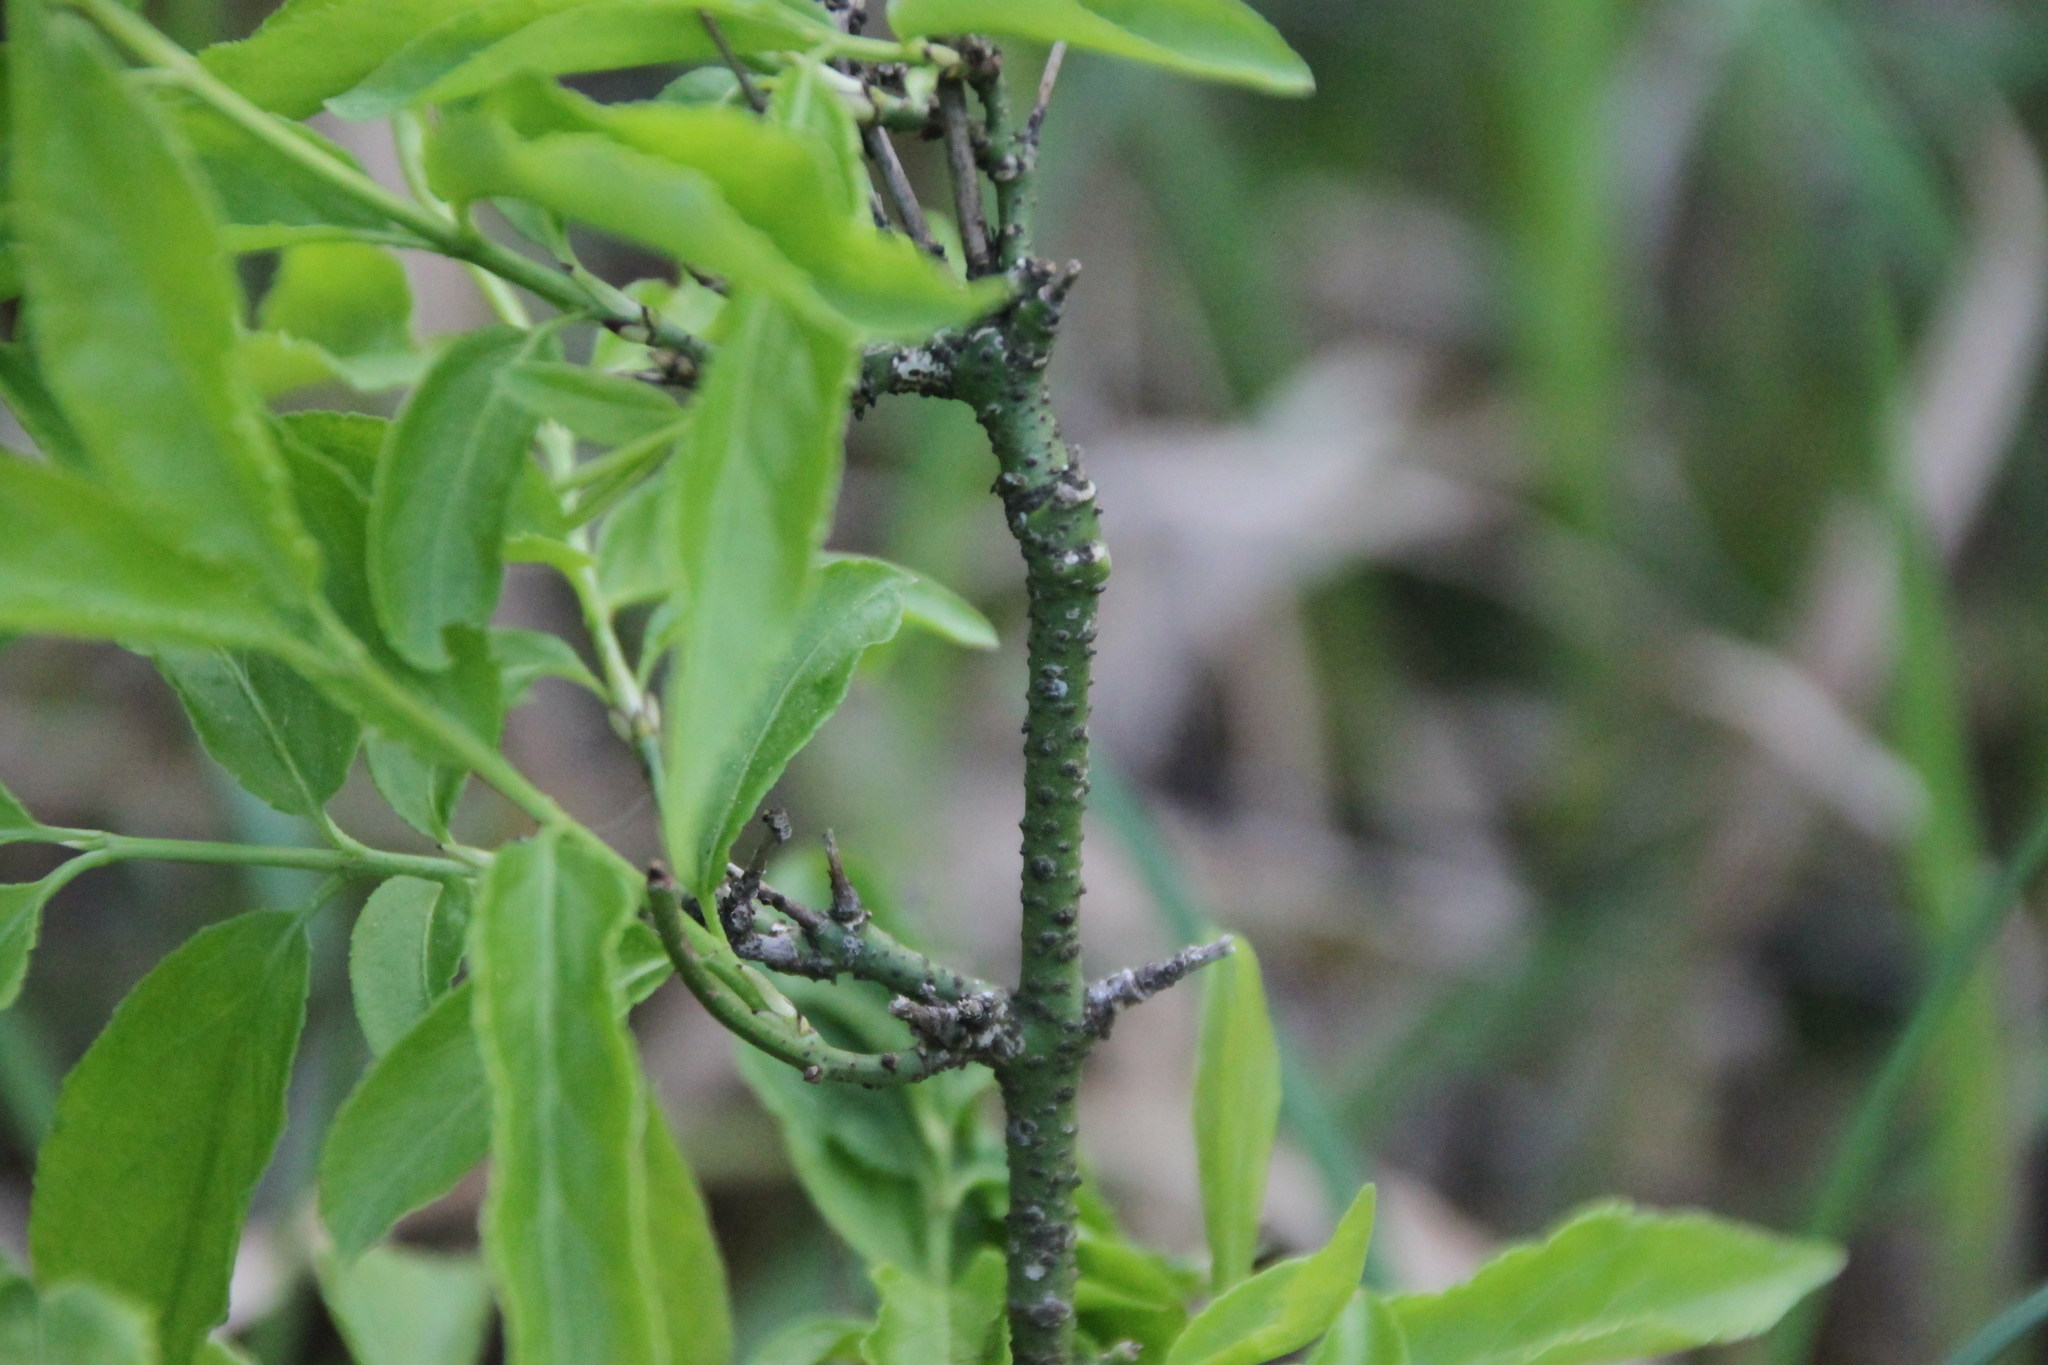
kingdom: Plantae
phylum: Tracheophyta
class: Magnoliopsida
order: Celastrales
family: Celastraceae
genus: Euonymus
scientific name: Euonymus verrucosus
